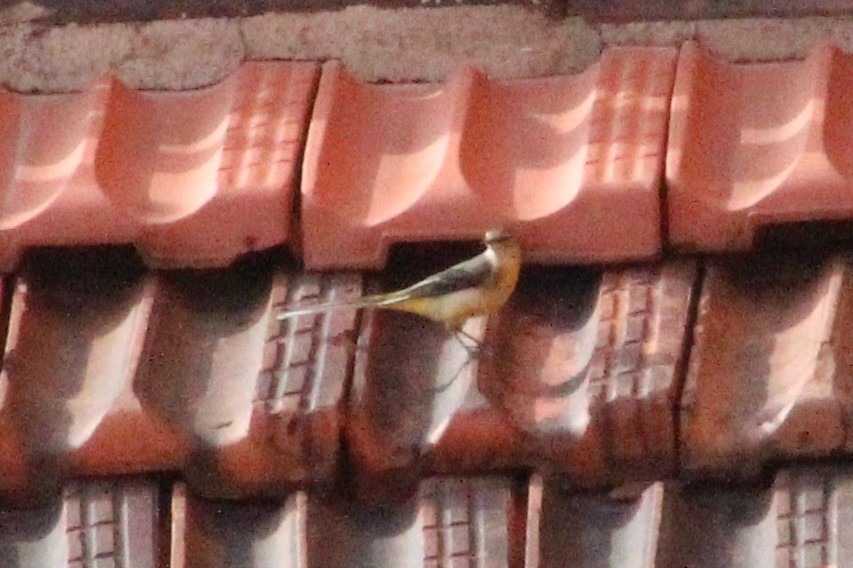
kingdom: Animalia
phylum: Chordata
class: Aves
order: Passeriformes
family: Motacillidae
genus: Motacilla
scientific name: Motacilla cinerea
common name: Grey wagtail
